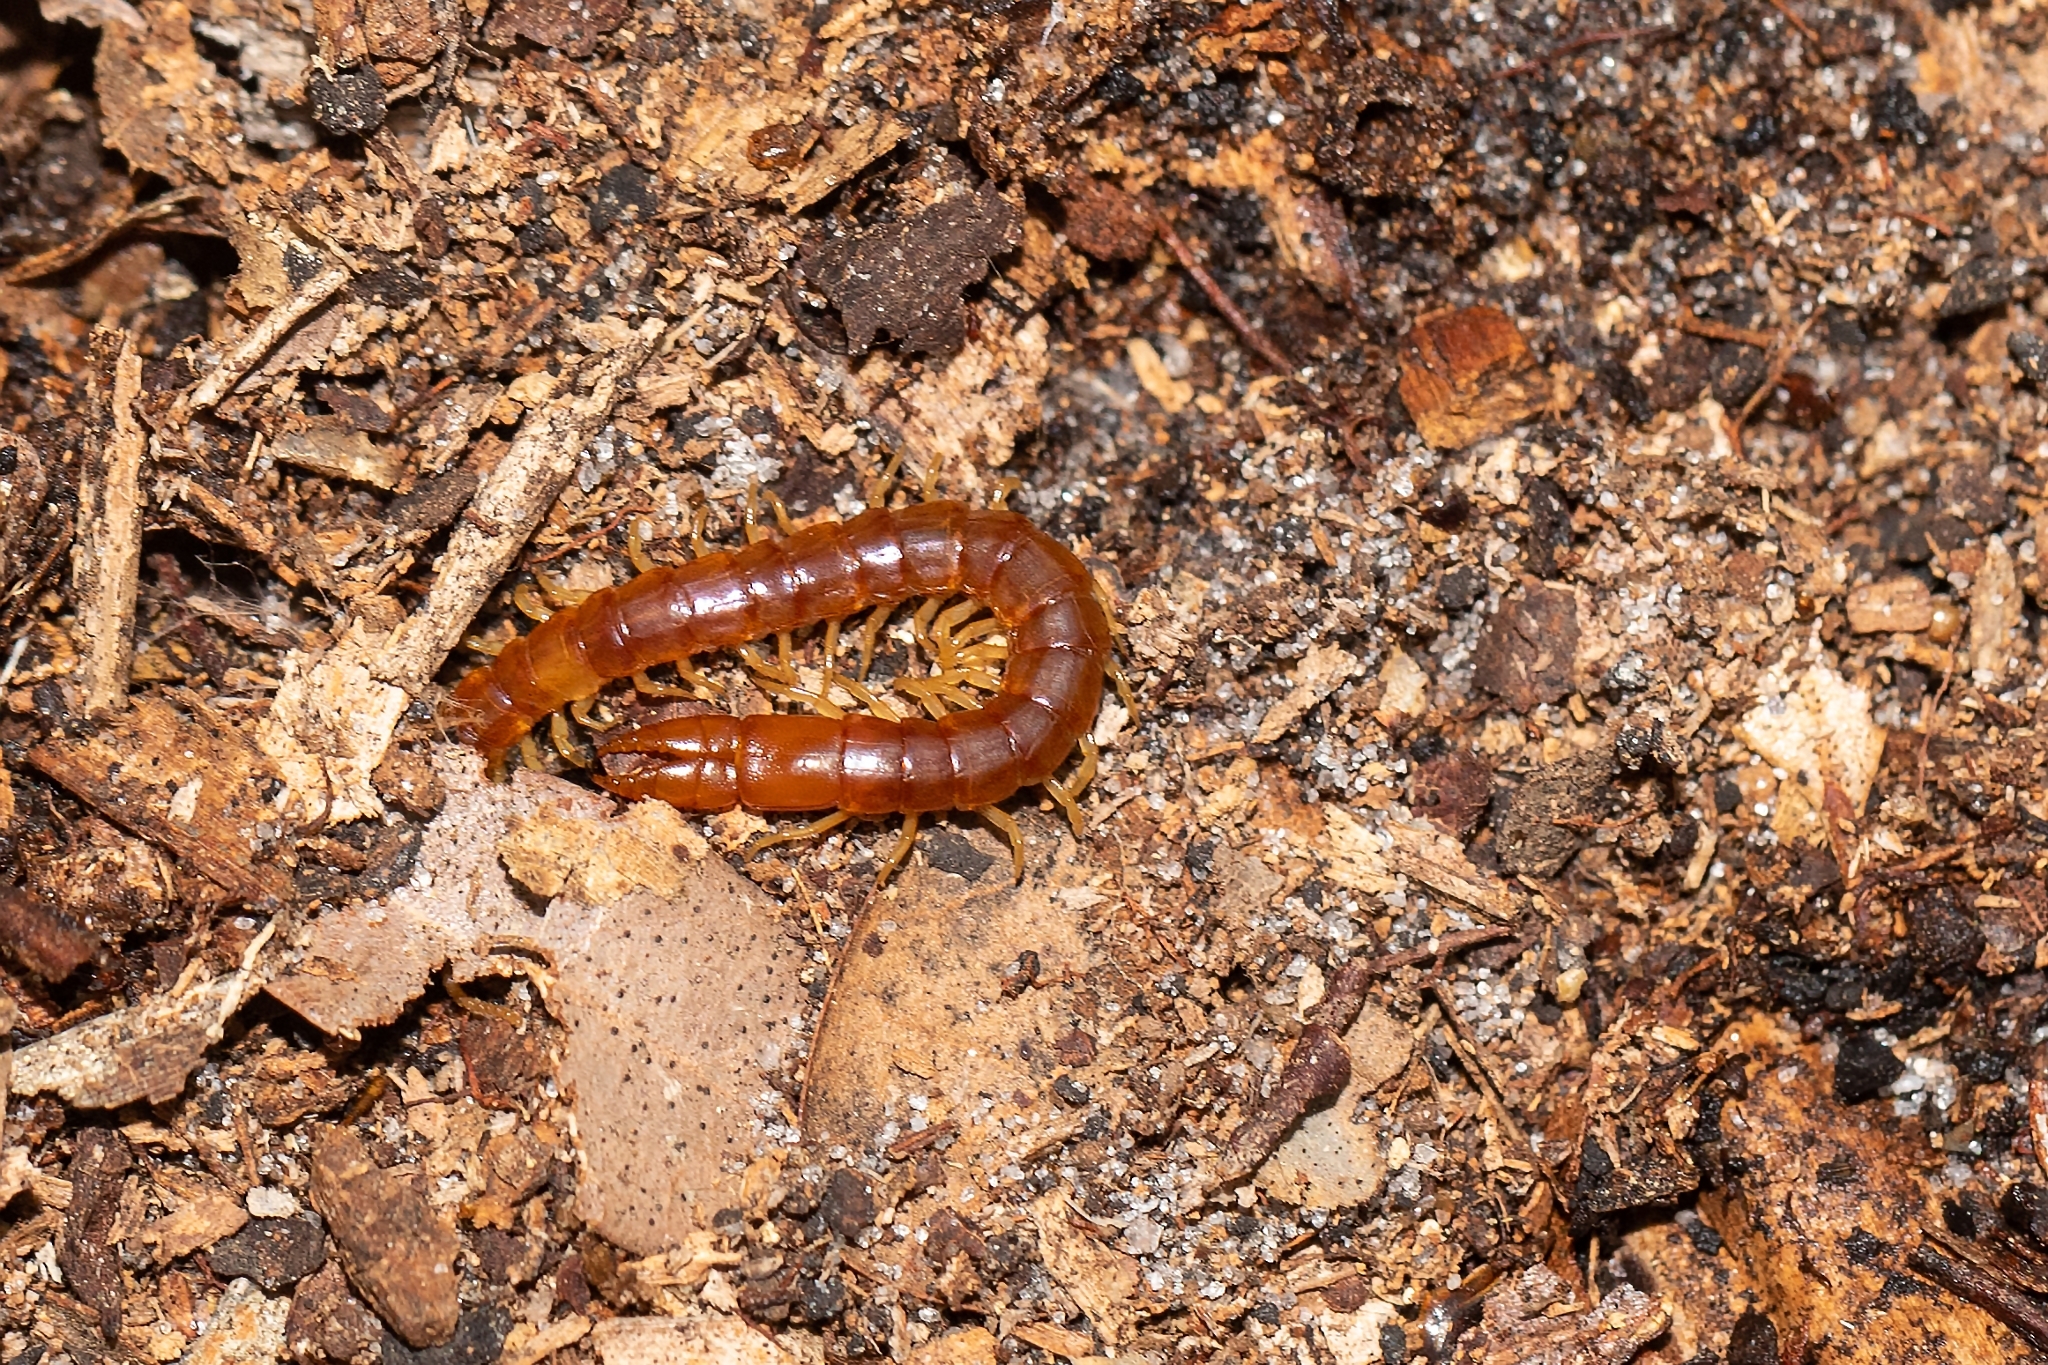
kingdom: Animalia
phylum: Arthropoda
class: Chilopoda
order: Scolopendromorpha
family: Cryptopidae
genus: Theatops
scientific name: Theatops posticus
